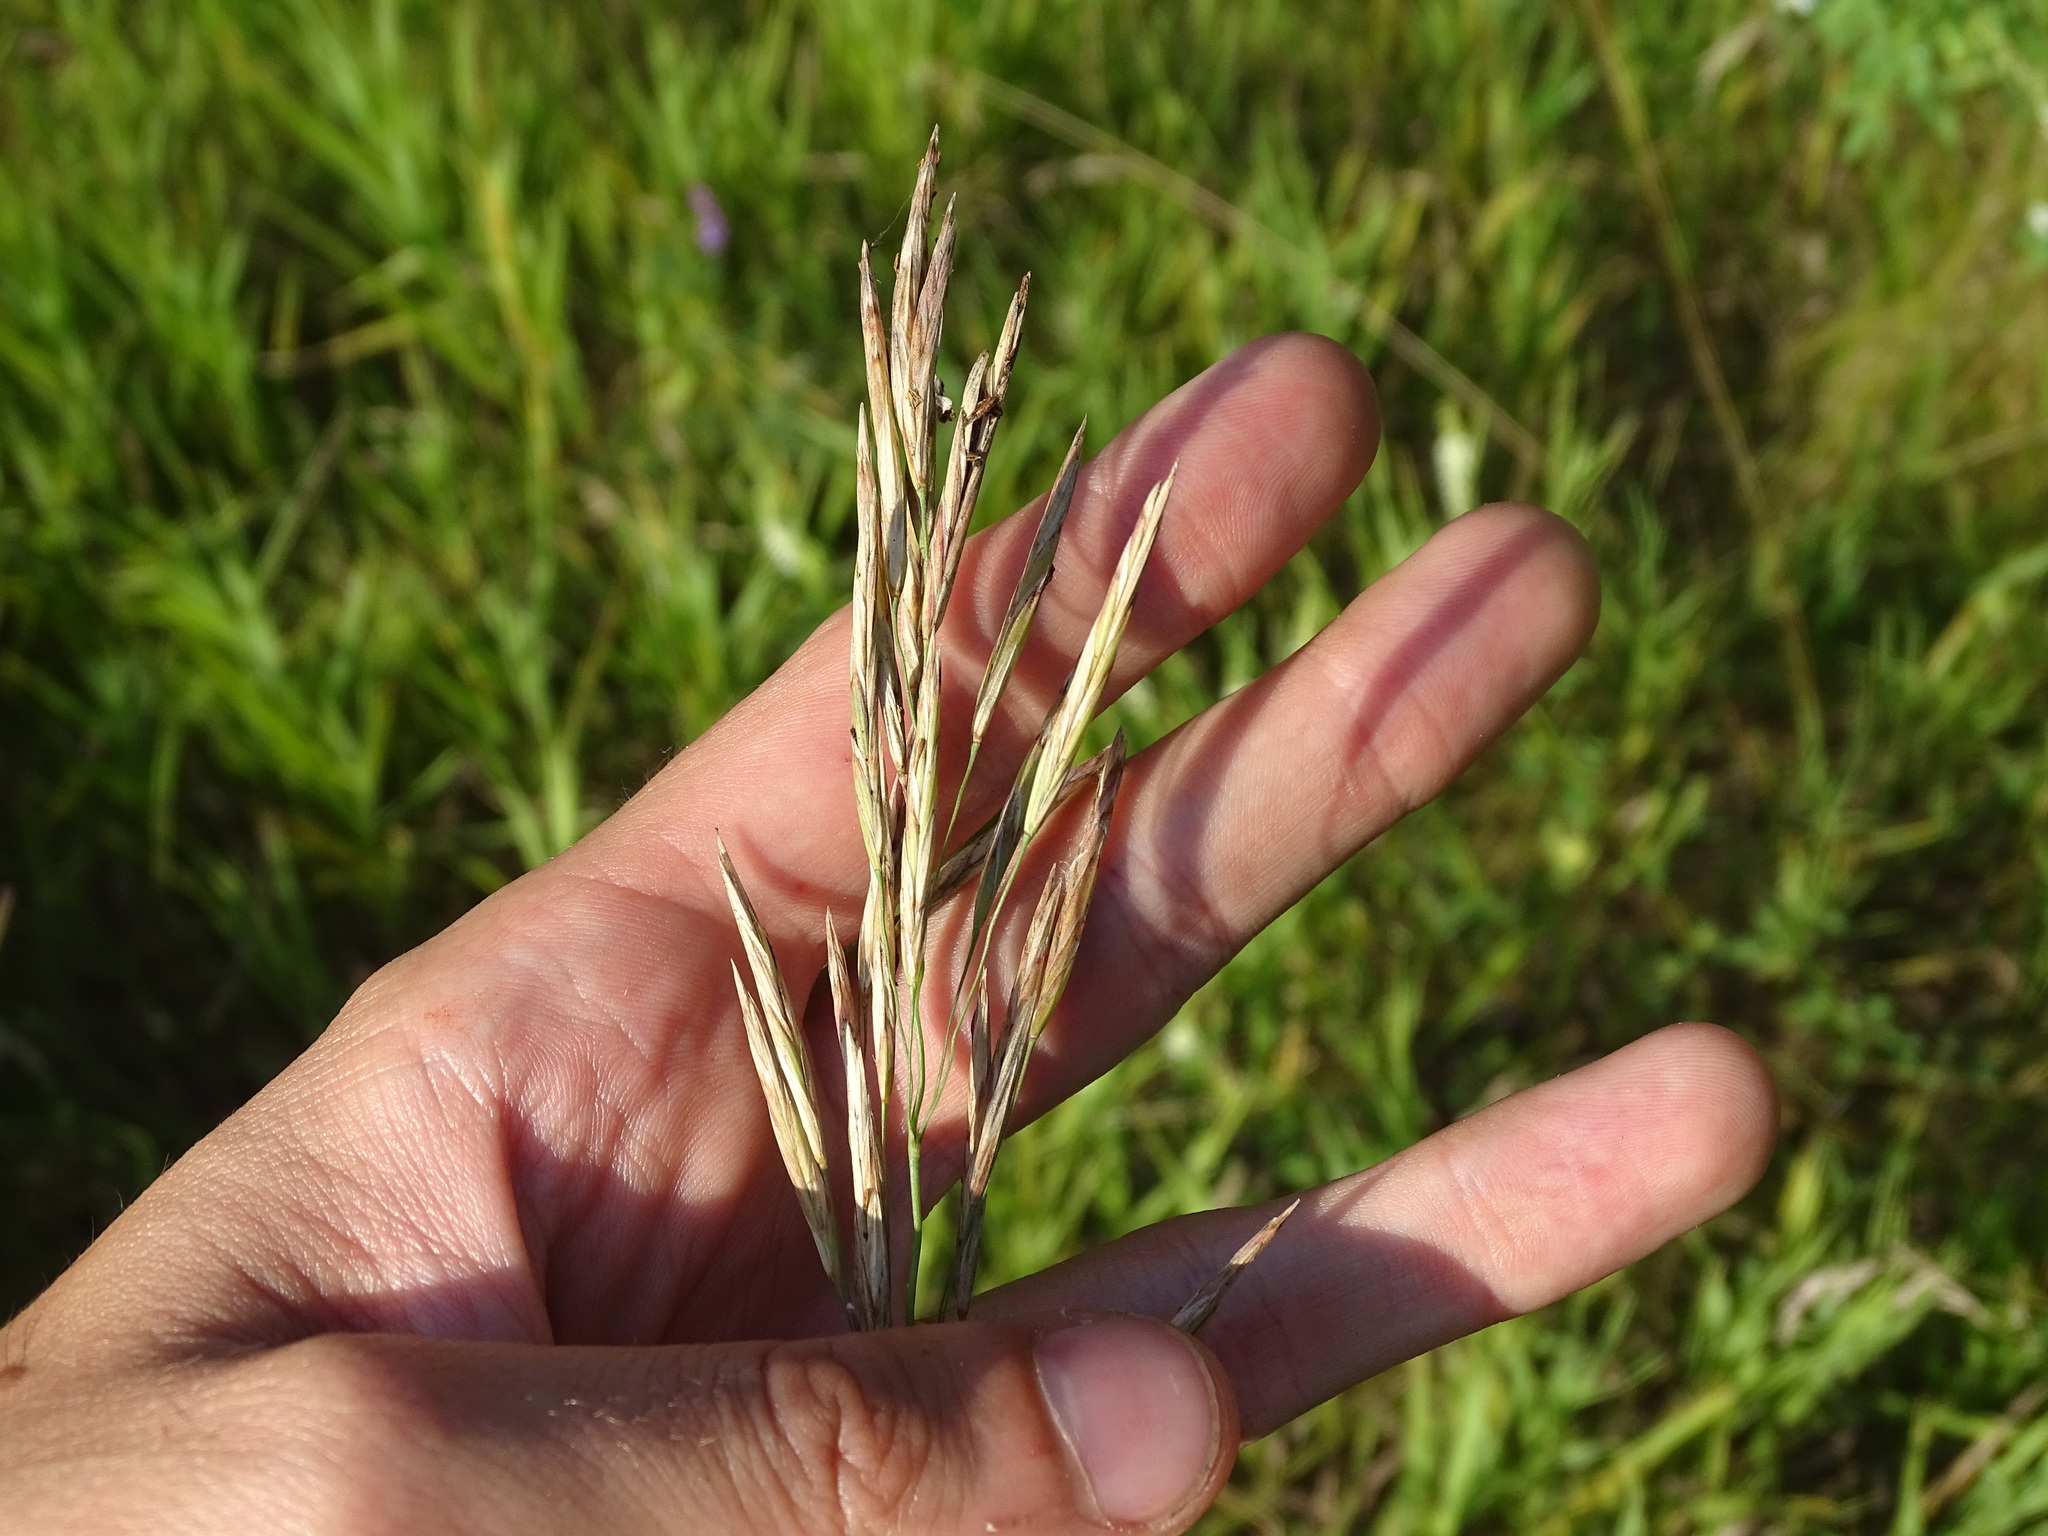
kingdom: Plantae
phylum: Tracheophyta
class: Liliopsida
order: Poales
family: Poaceae
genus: Bromus
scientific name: Bromus inermis
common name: Smooth brome
